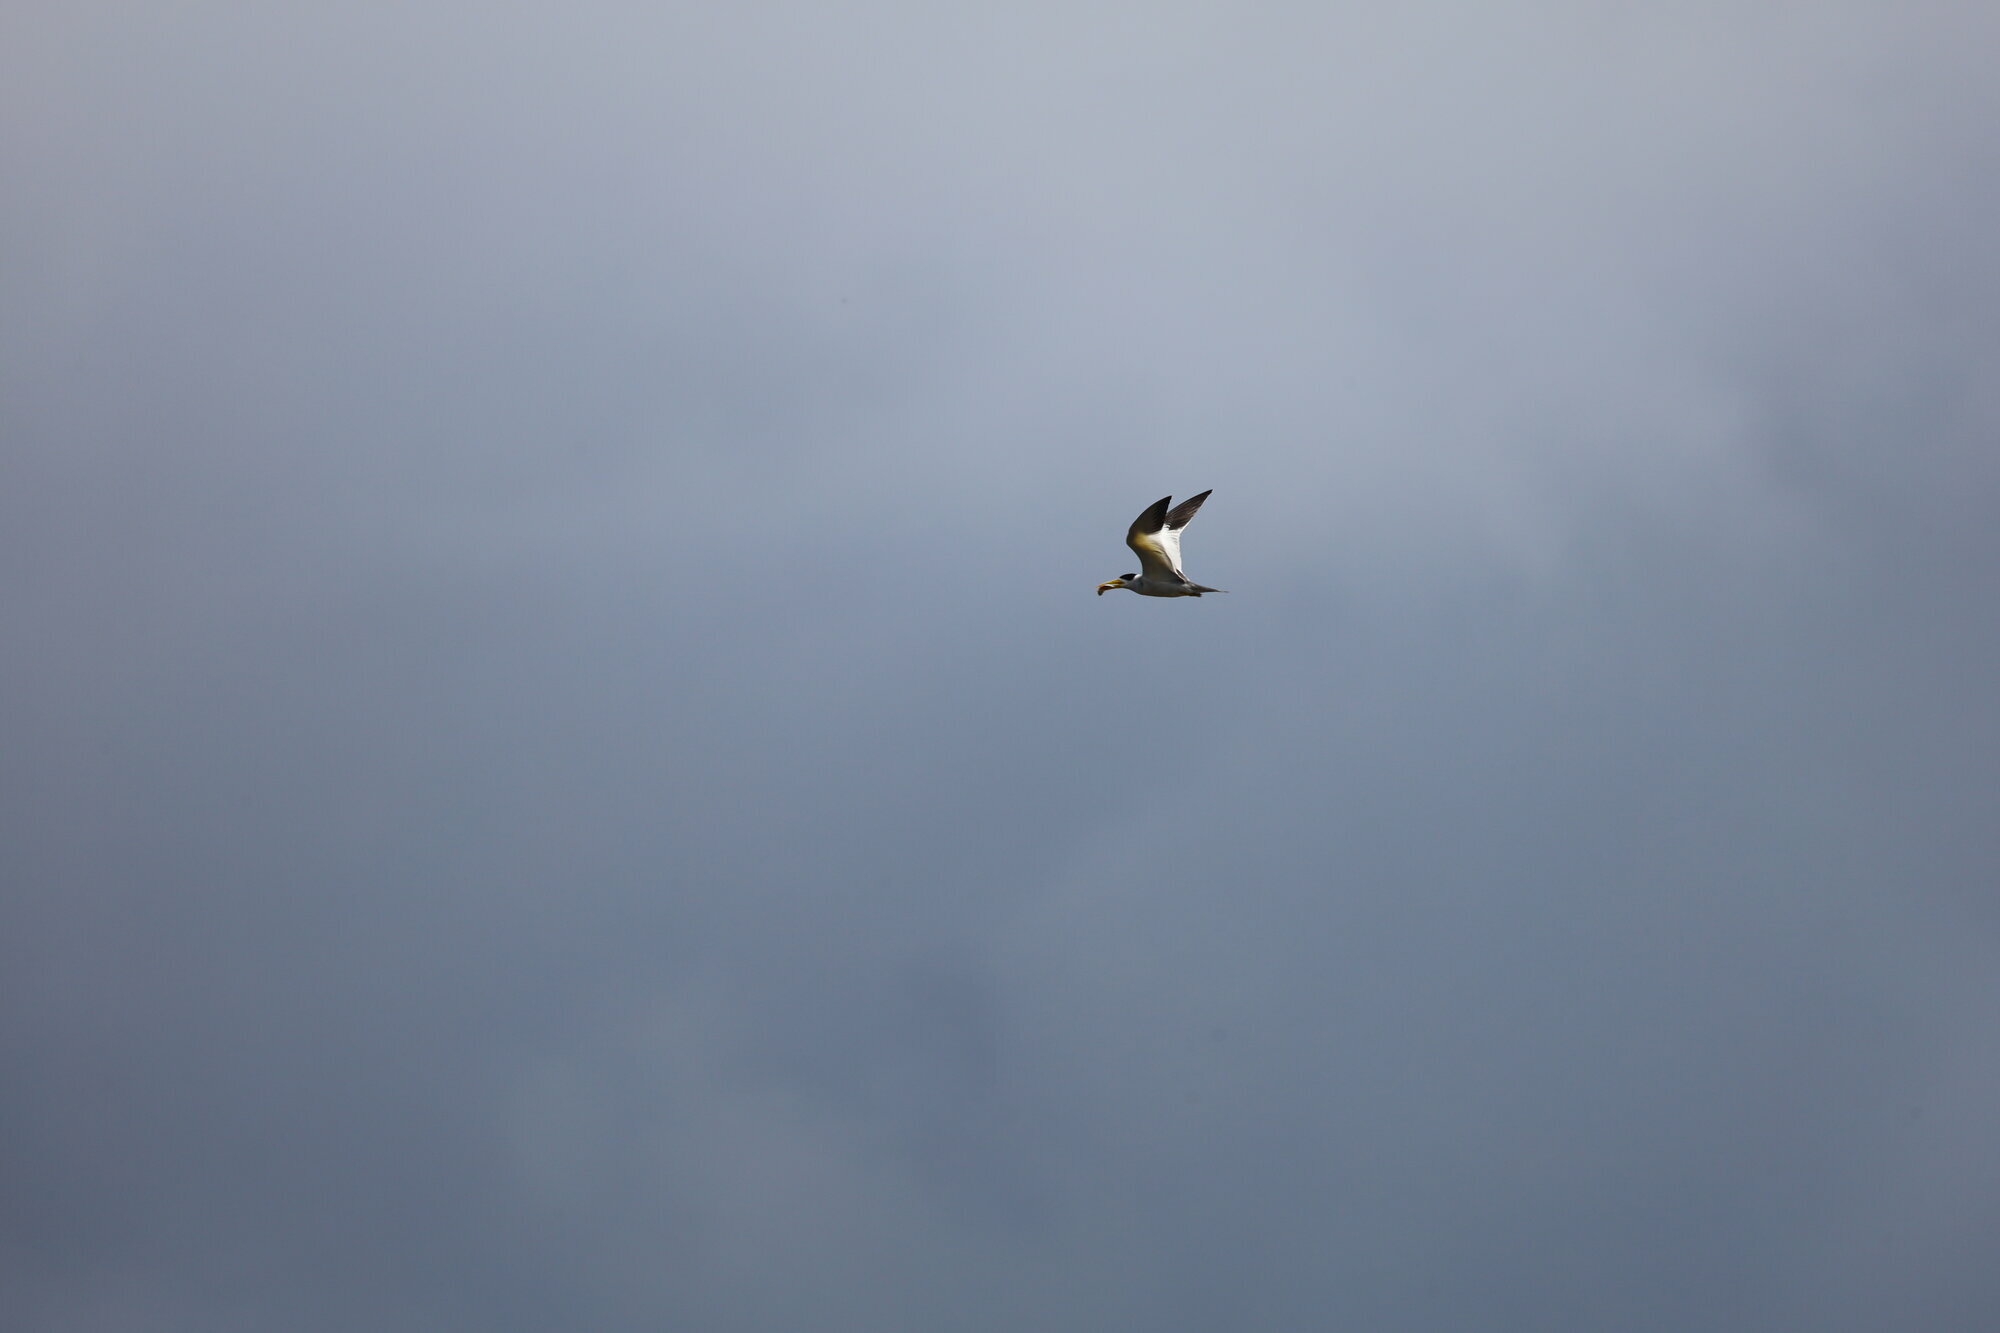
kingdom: Animalia
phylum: Chordata
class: Aves
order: Charadriiformes
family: Laridae
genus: Phaetusa
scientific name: Phaetusa simplex
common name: Large-billed tern
